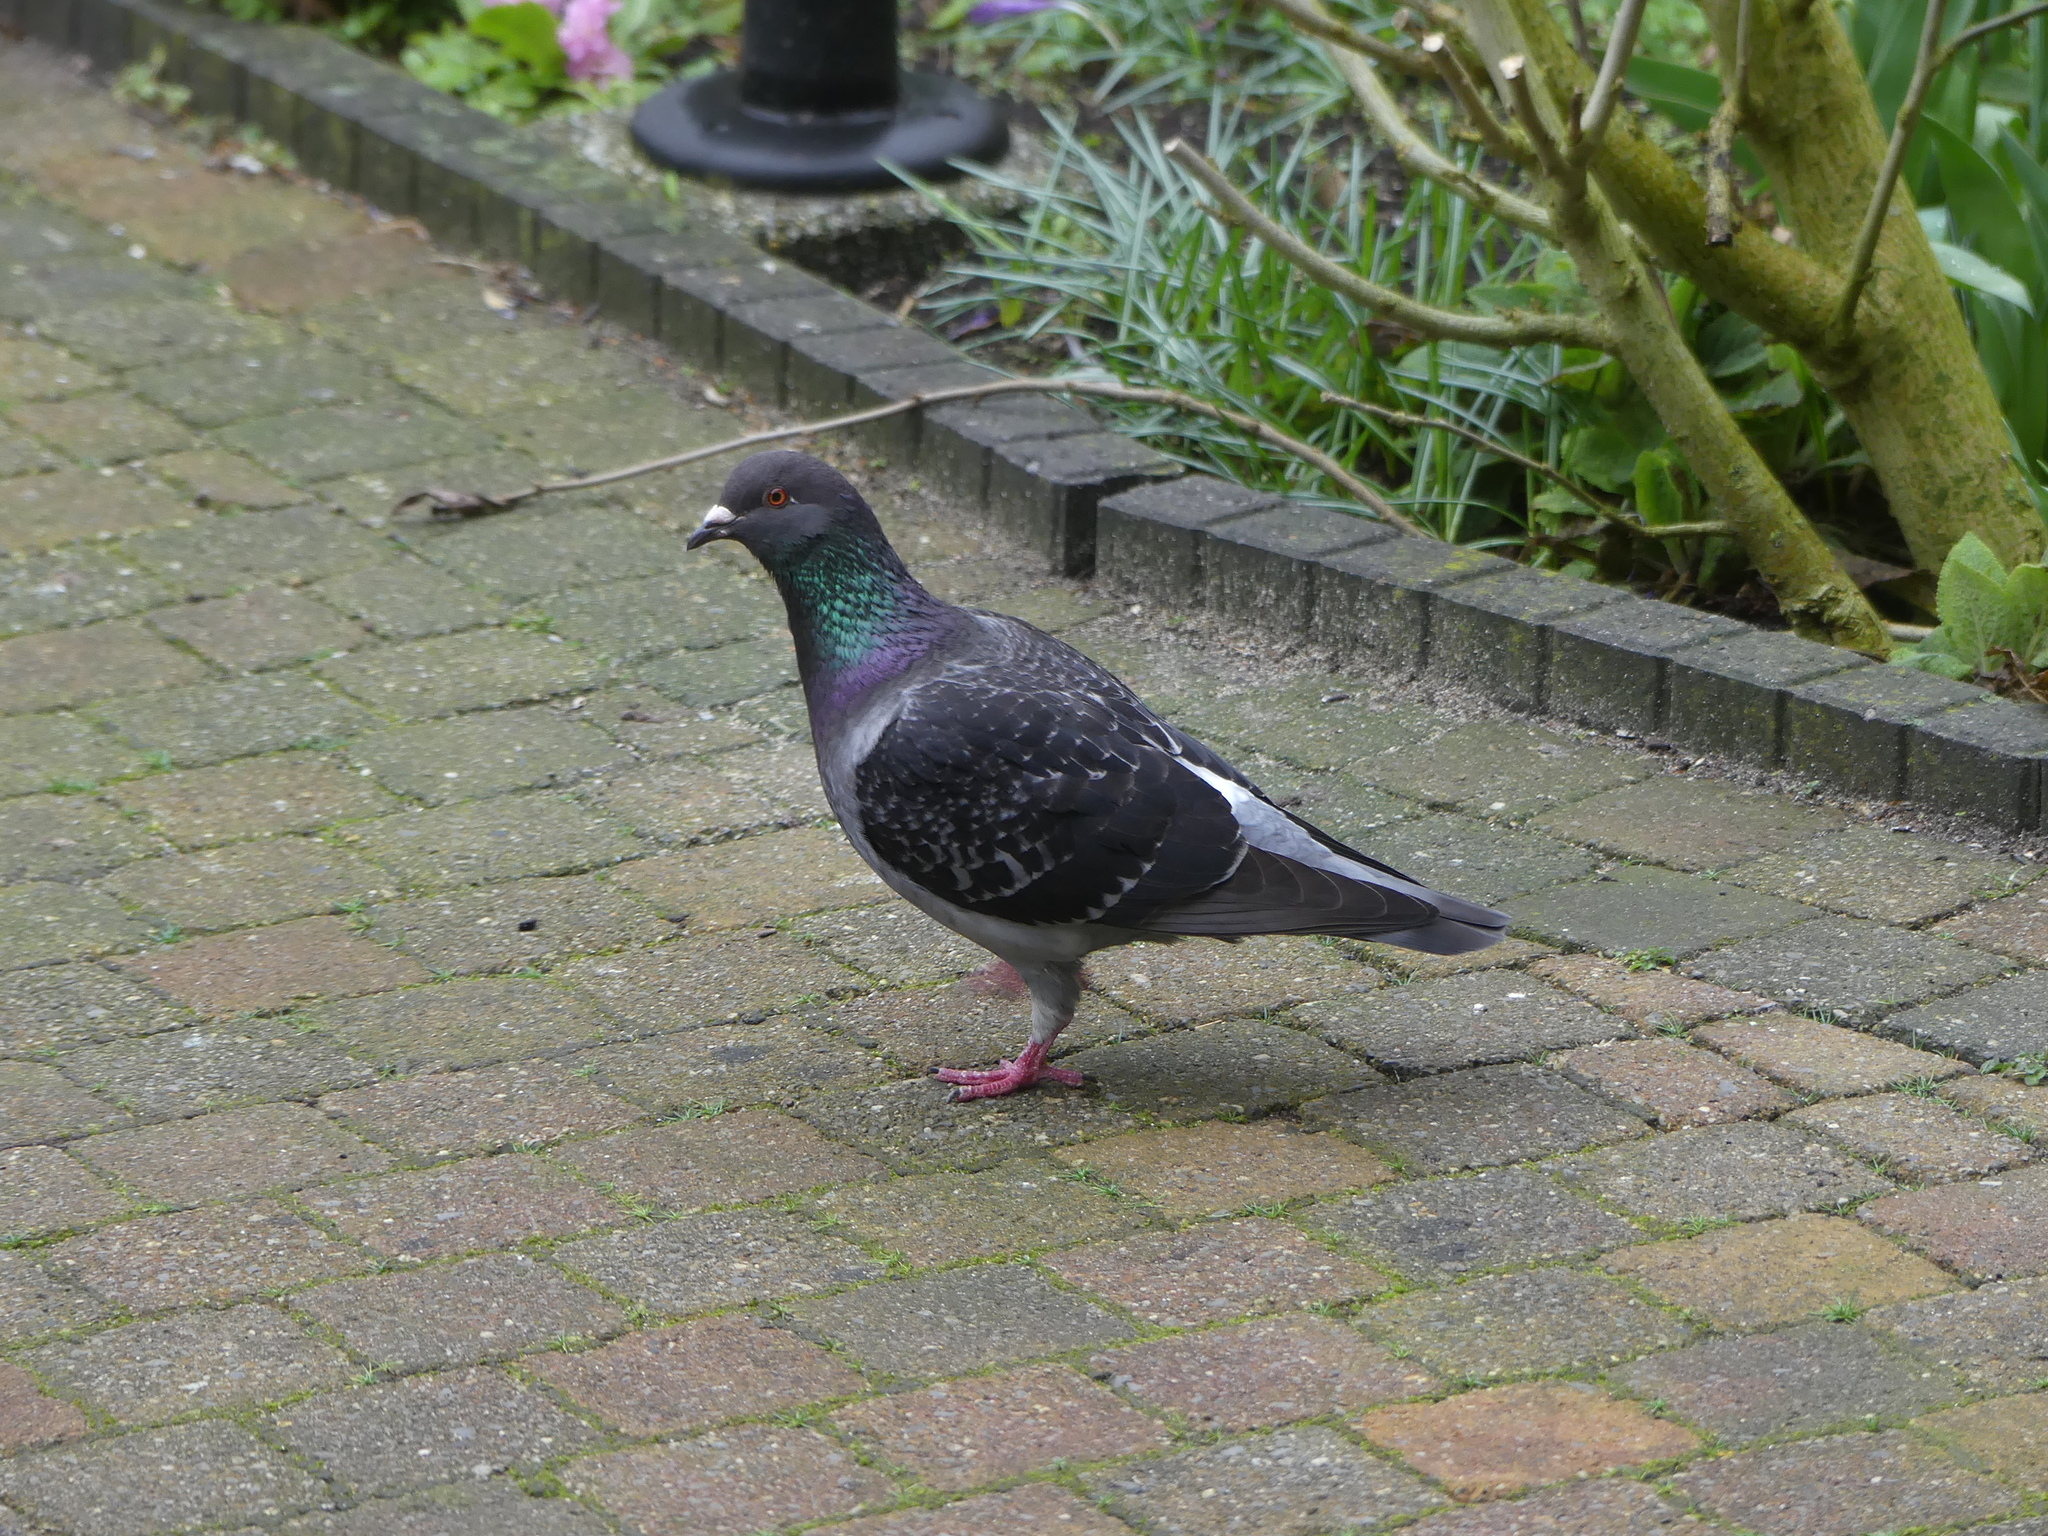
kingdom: Animalia
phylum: Chordata
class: Aves
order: Columbiformes
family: Columbidae
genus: Columba
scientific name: Columba livia
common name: Rock pigeon
